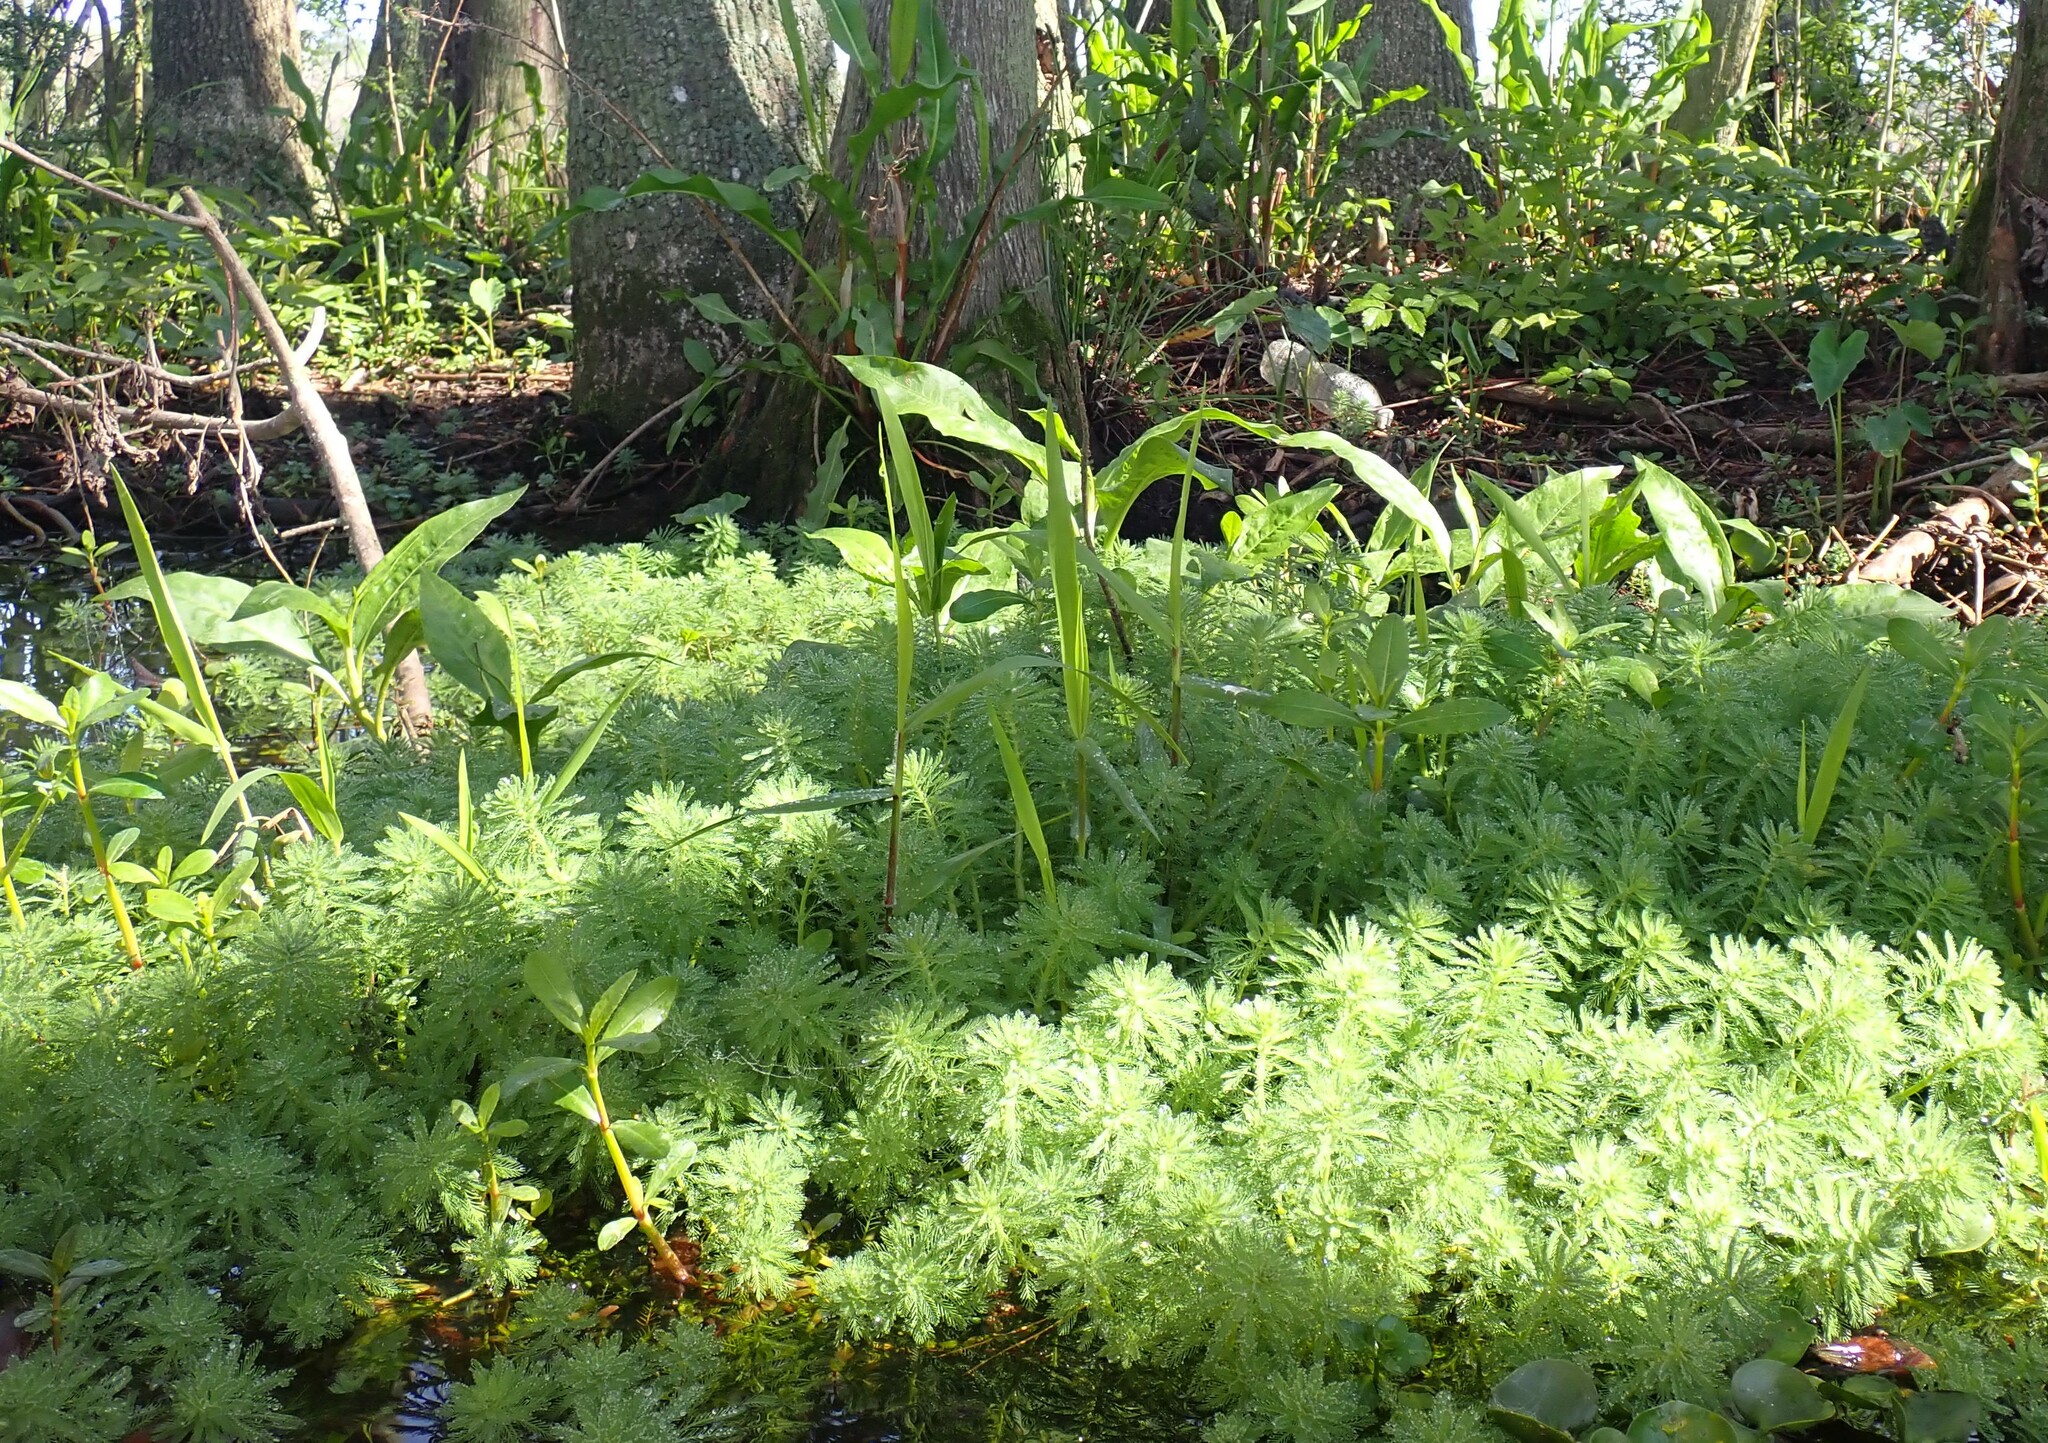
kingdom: Plantae
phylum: Tracheophyta
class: Magnoliopsida
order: Saxifragales
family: Haloragaceae
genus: Myriophyllum
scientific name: Myriophyllum aquaticum
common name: Parrot's feather
